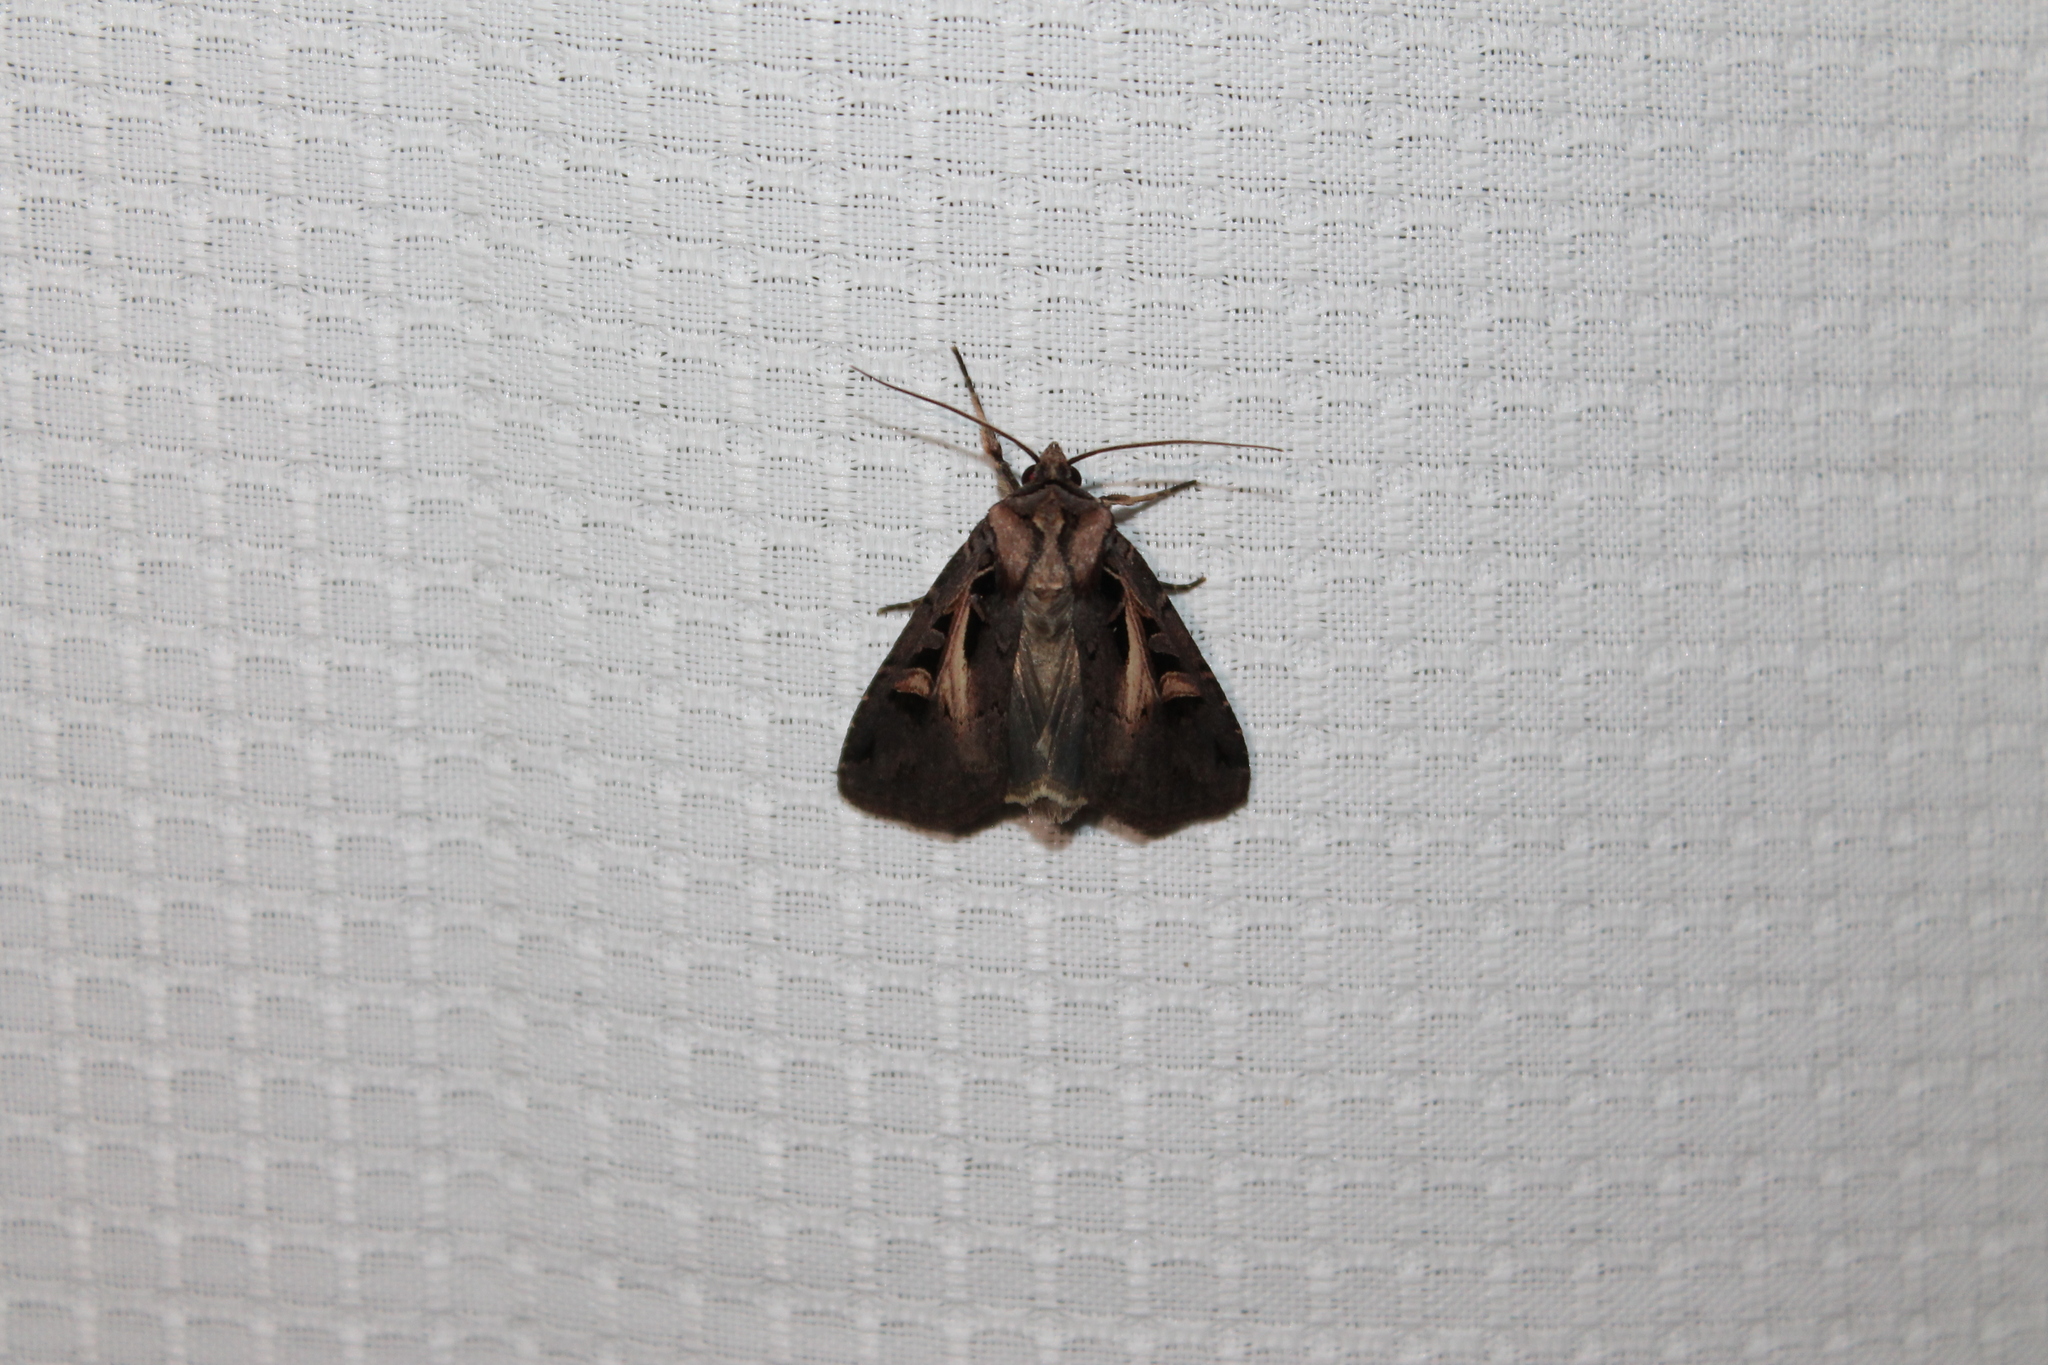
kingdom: Animalia
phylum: Arthropoda
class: Insecta
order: Lepidoptera
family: Noctuidae
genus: Feltia
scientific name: Feltia herilis
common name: Master's dart
